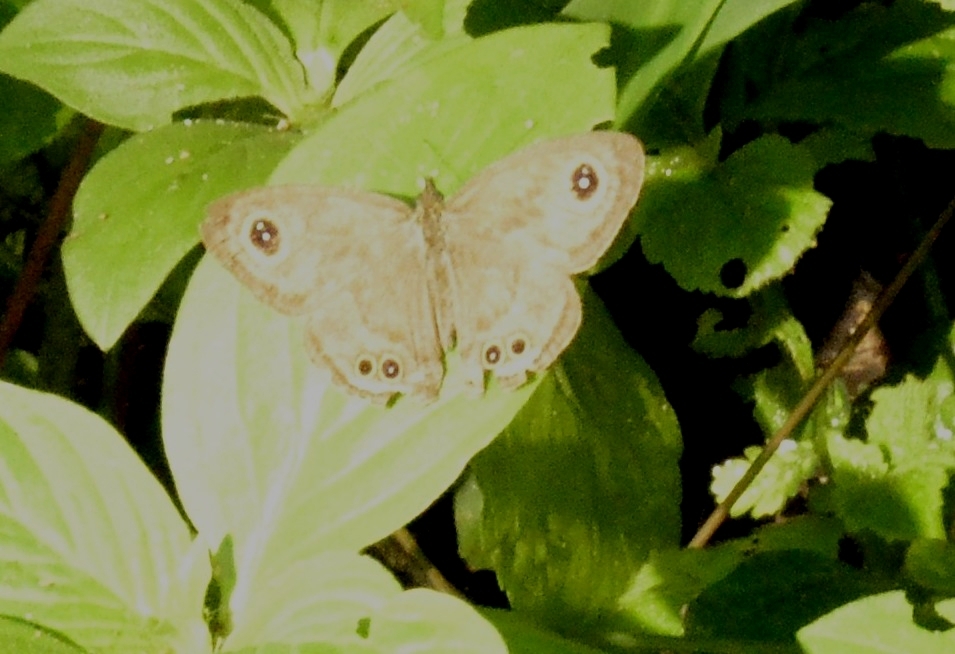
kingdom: Animalia
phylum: Arthropoda
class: Insecta
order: Lepidoptera
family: Nymphalidae
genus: Ypthima
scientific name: Ypthima huebneri
